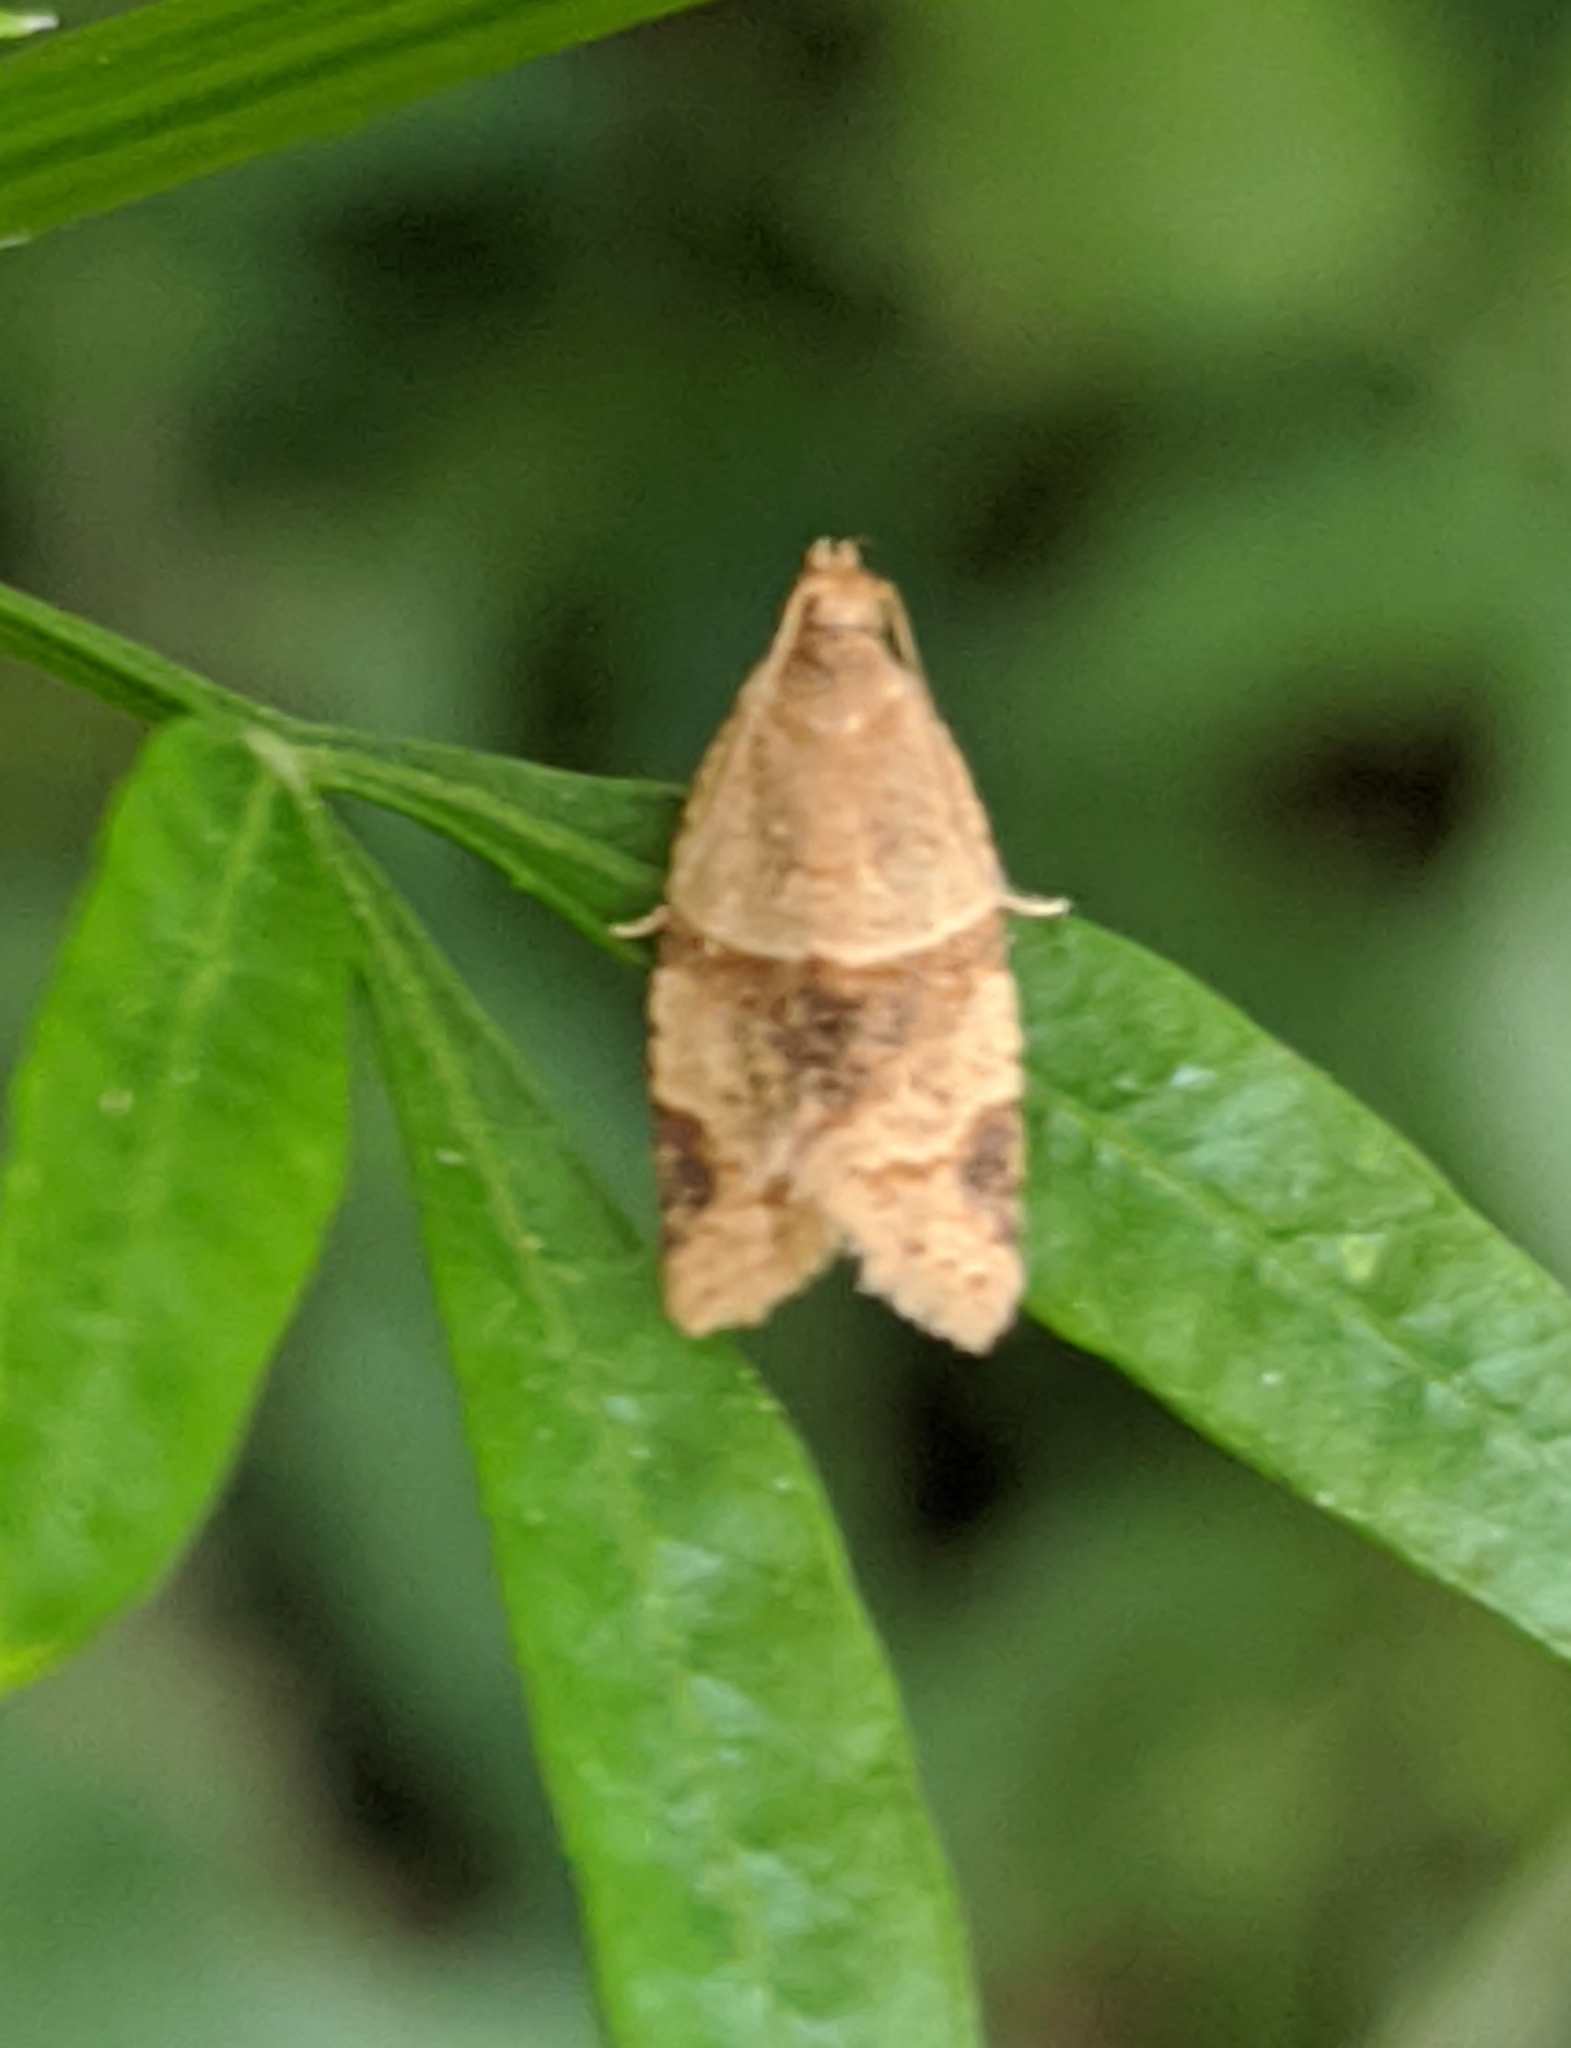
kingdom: Animalia
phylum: Arthropoda
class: Insecta
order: Lepidoptera
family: Tortricidae
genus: Clepsis
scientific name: Clepsis peritana
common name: Garden tortrix
